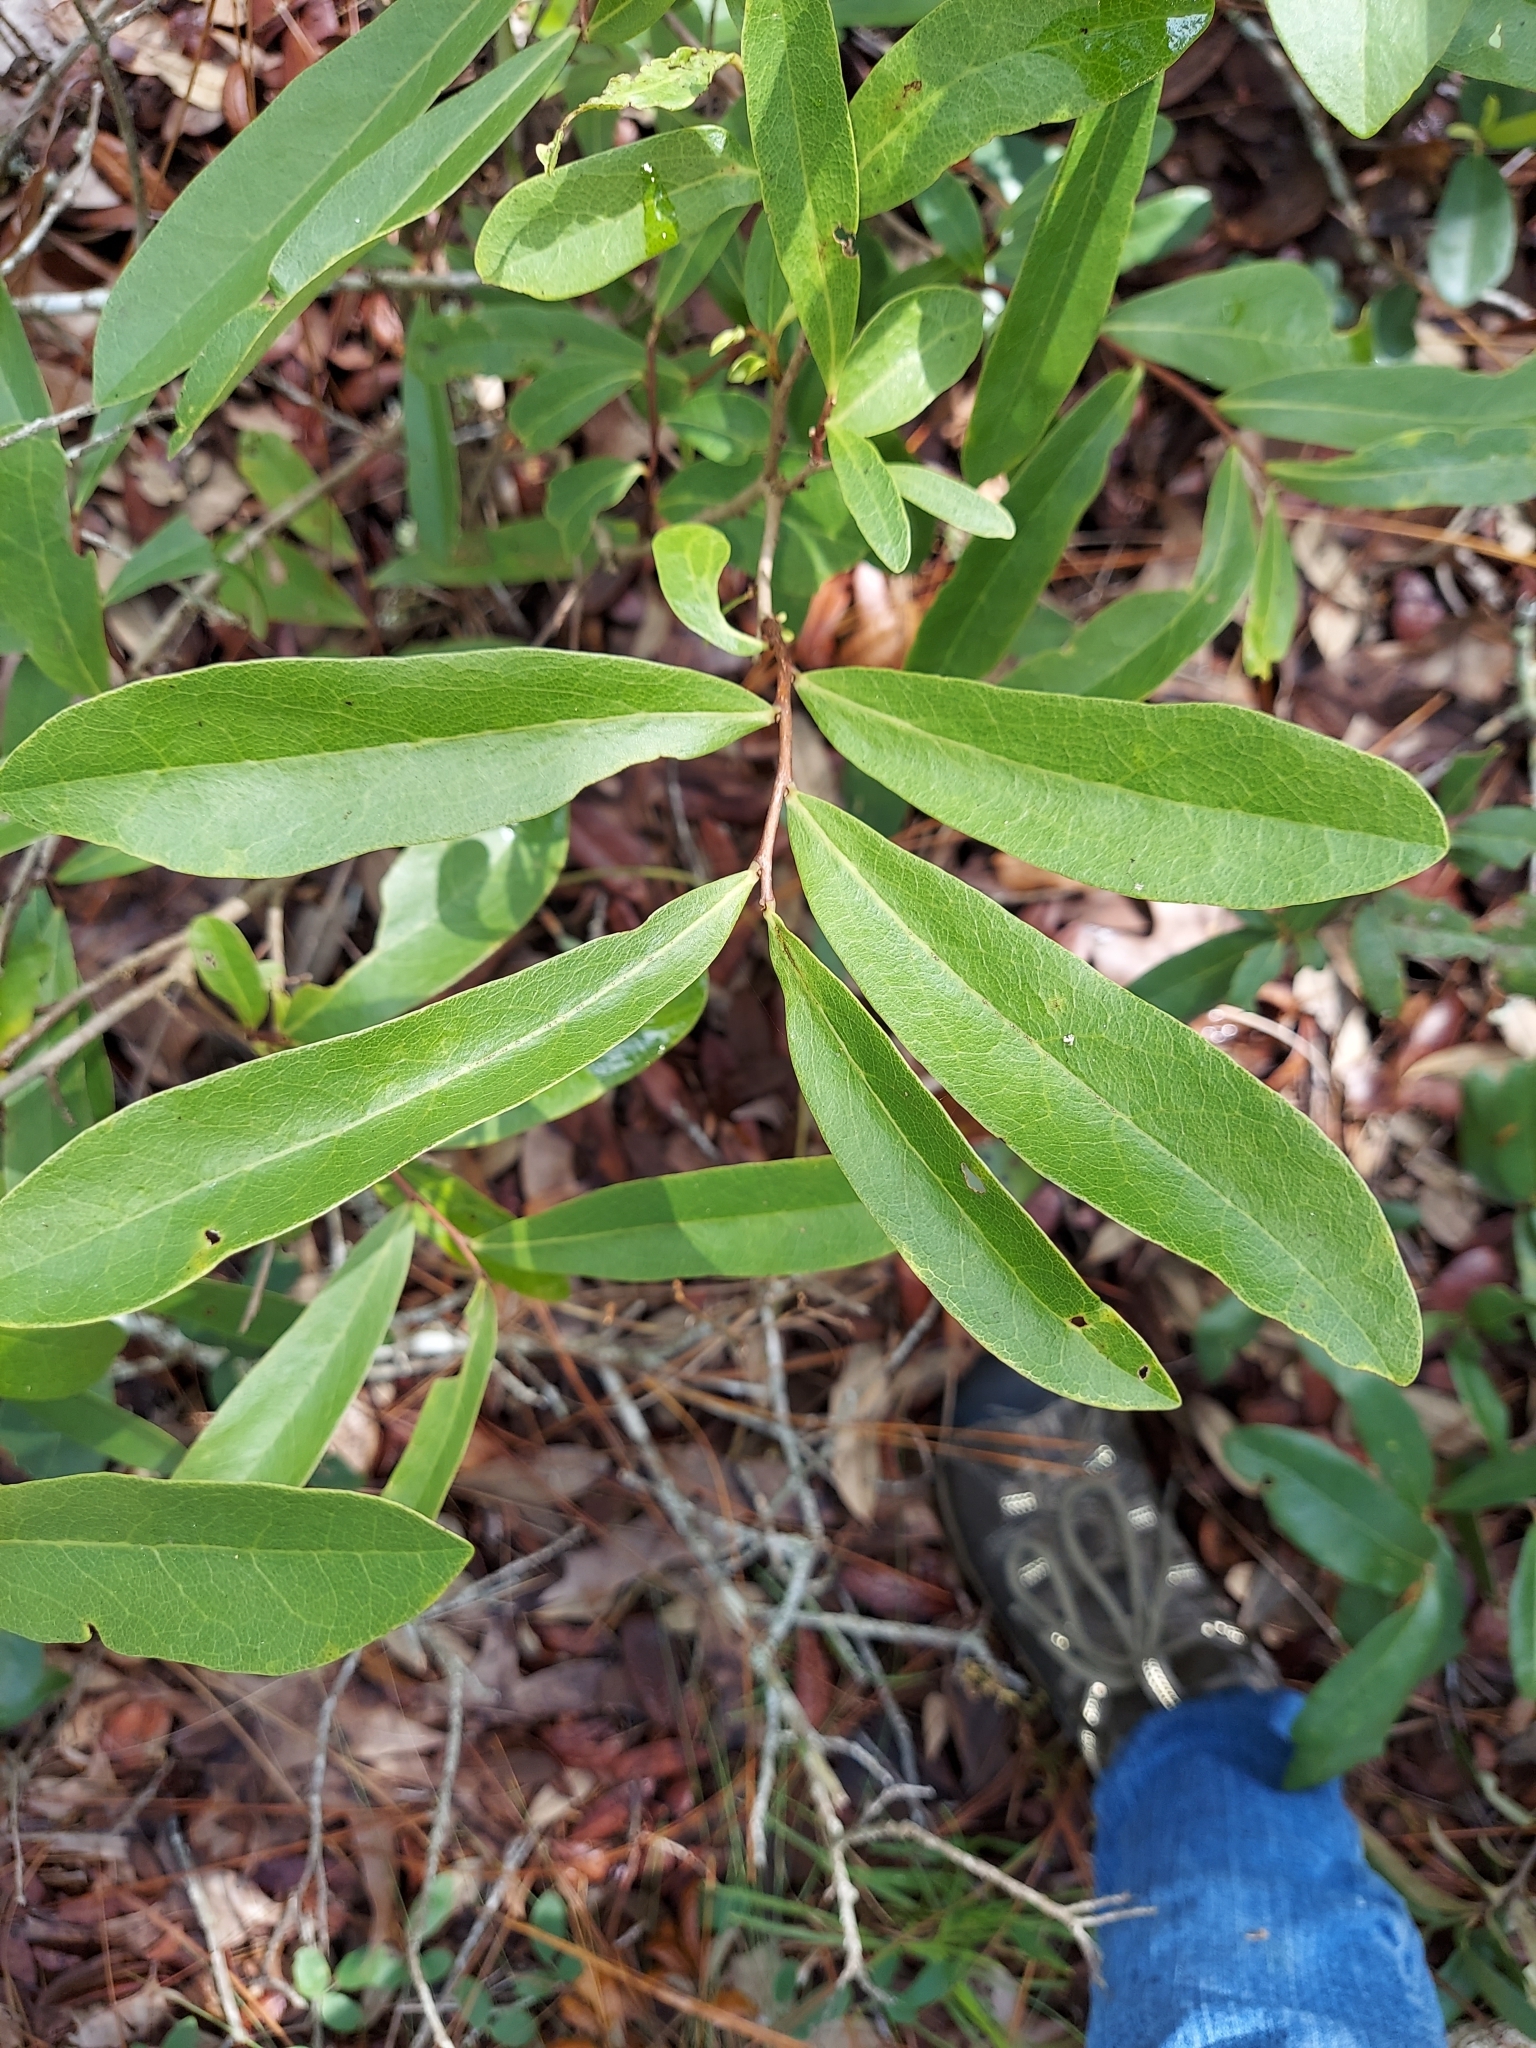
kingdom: Plantae
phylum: Tracheophyta
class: Magnoliopsida
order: Magnoliales
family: Annonaceae
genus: Asimina
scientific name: Asimina pygmaea
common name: Dwarf pawpaw
